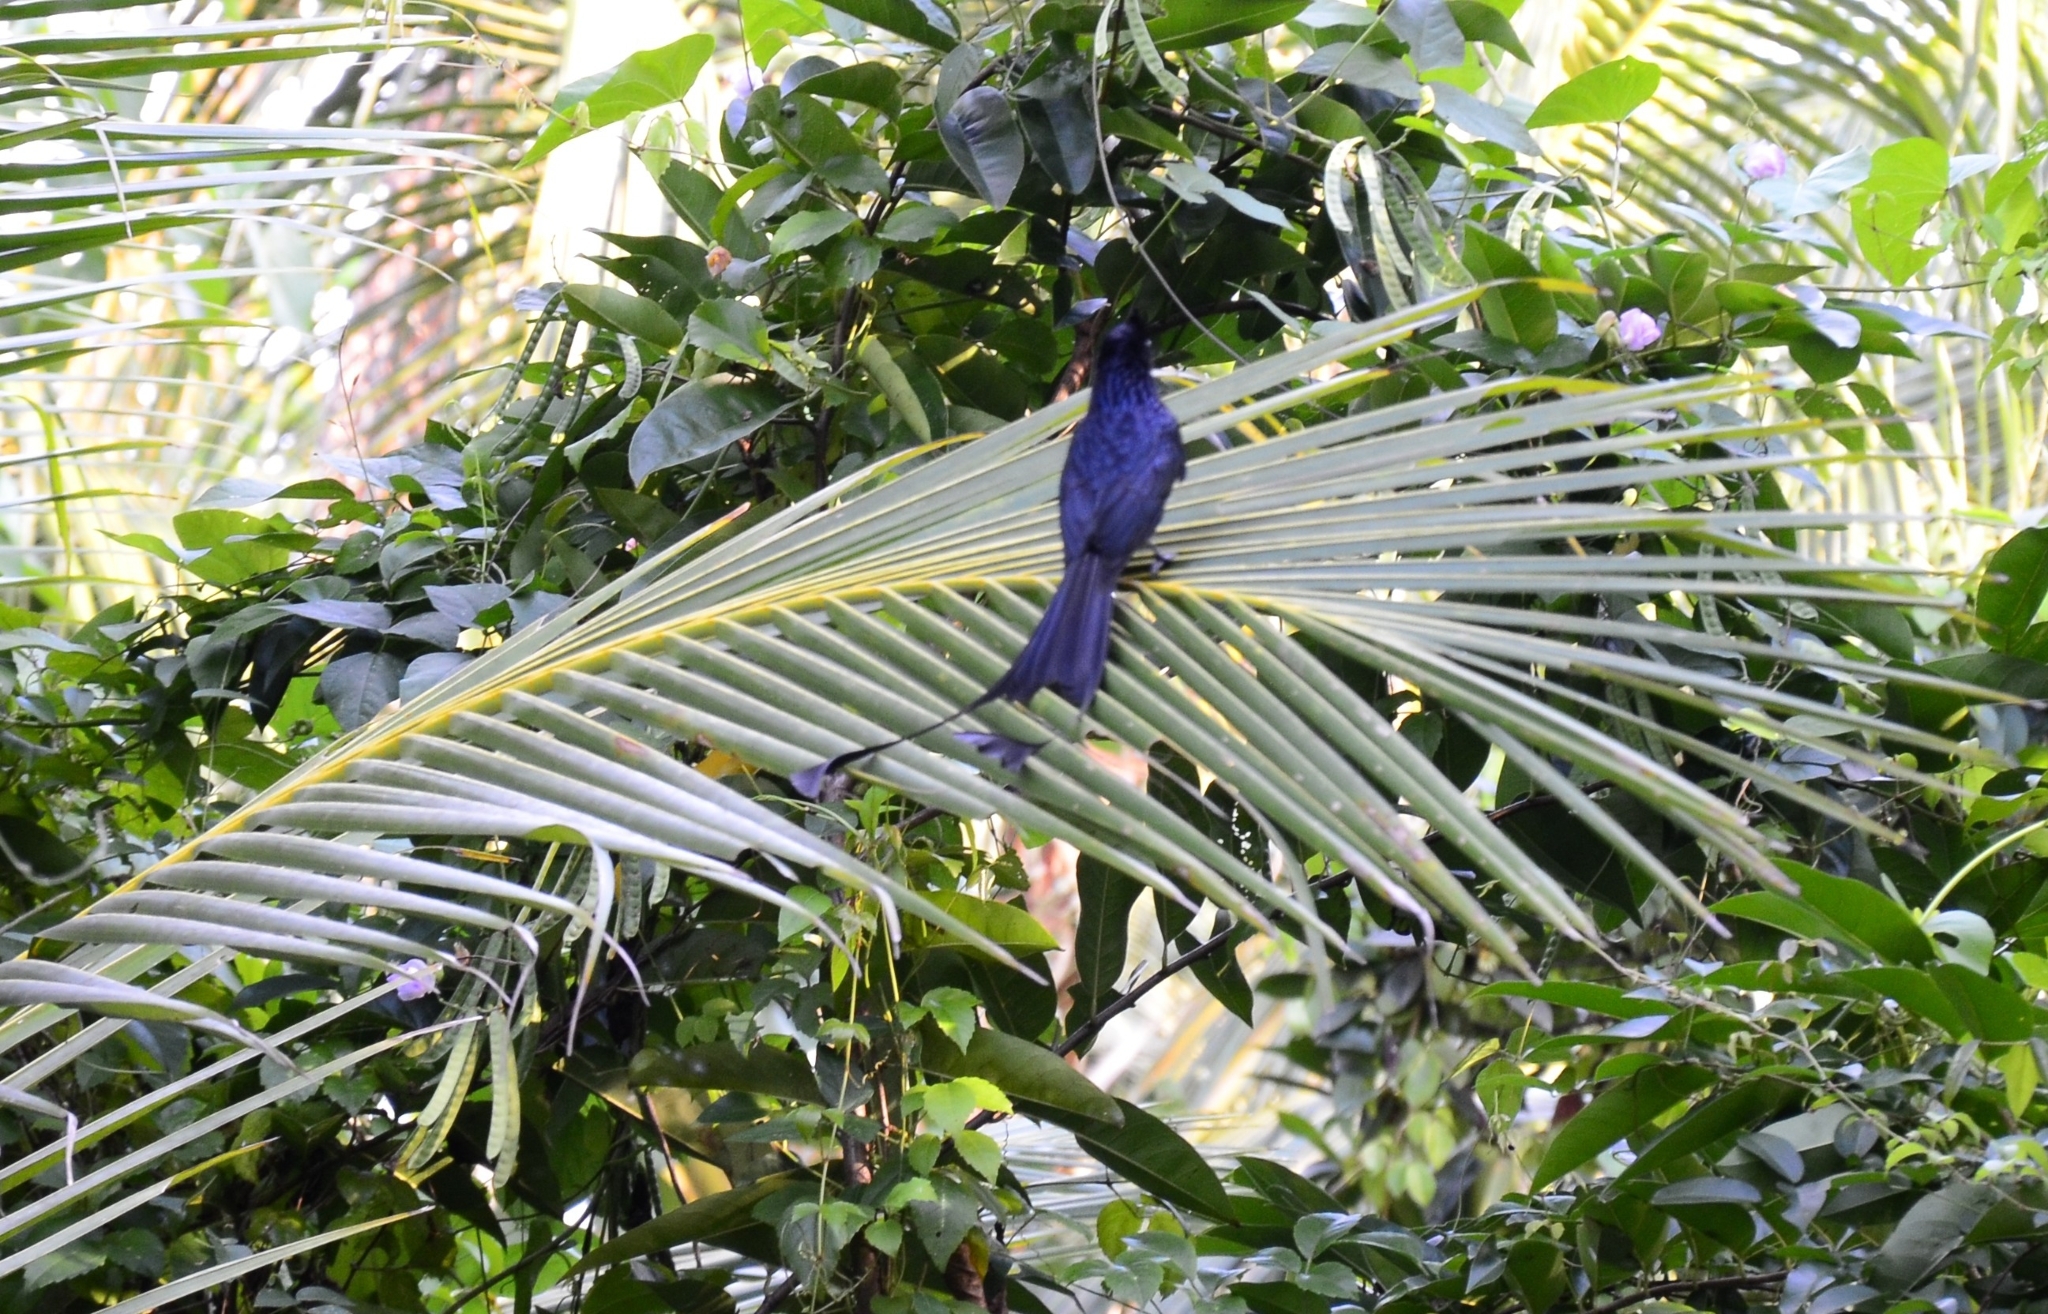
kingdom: Animalia
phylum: Chordata
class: Aves
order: Passeriformes
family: Dicruridae
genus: Dicrurus
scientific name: Dicrurus paradiseus
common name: Greater racket-tailed drongo
